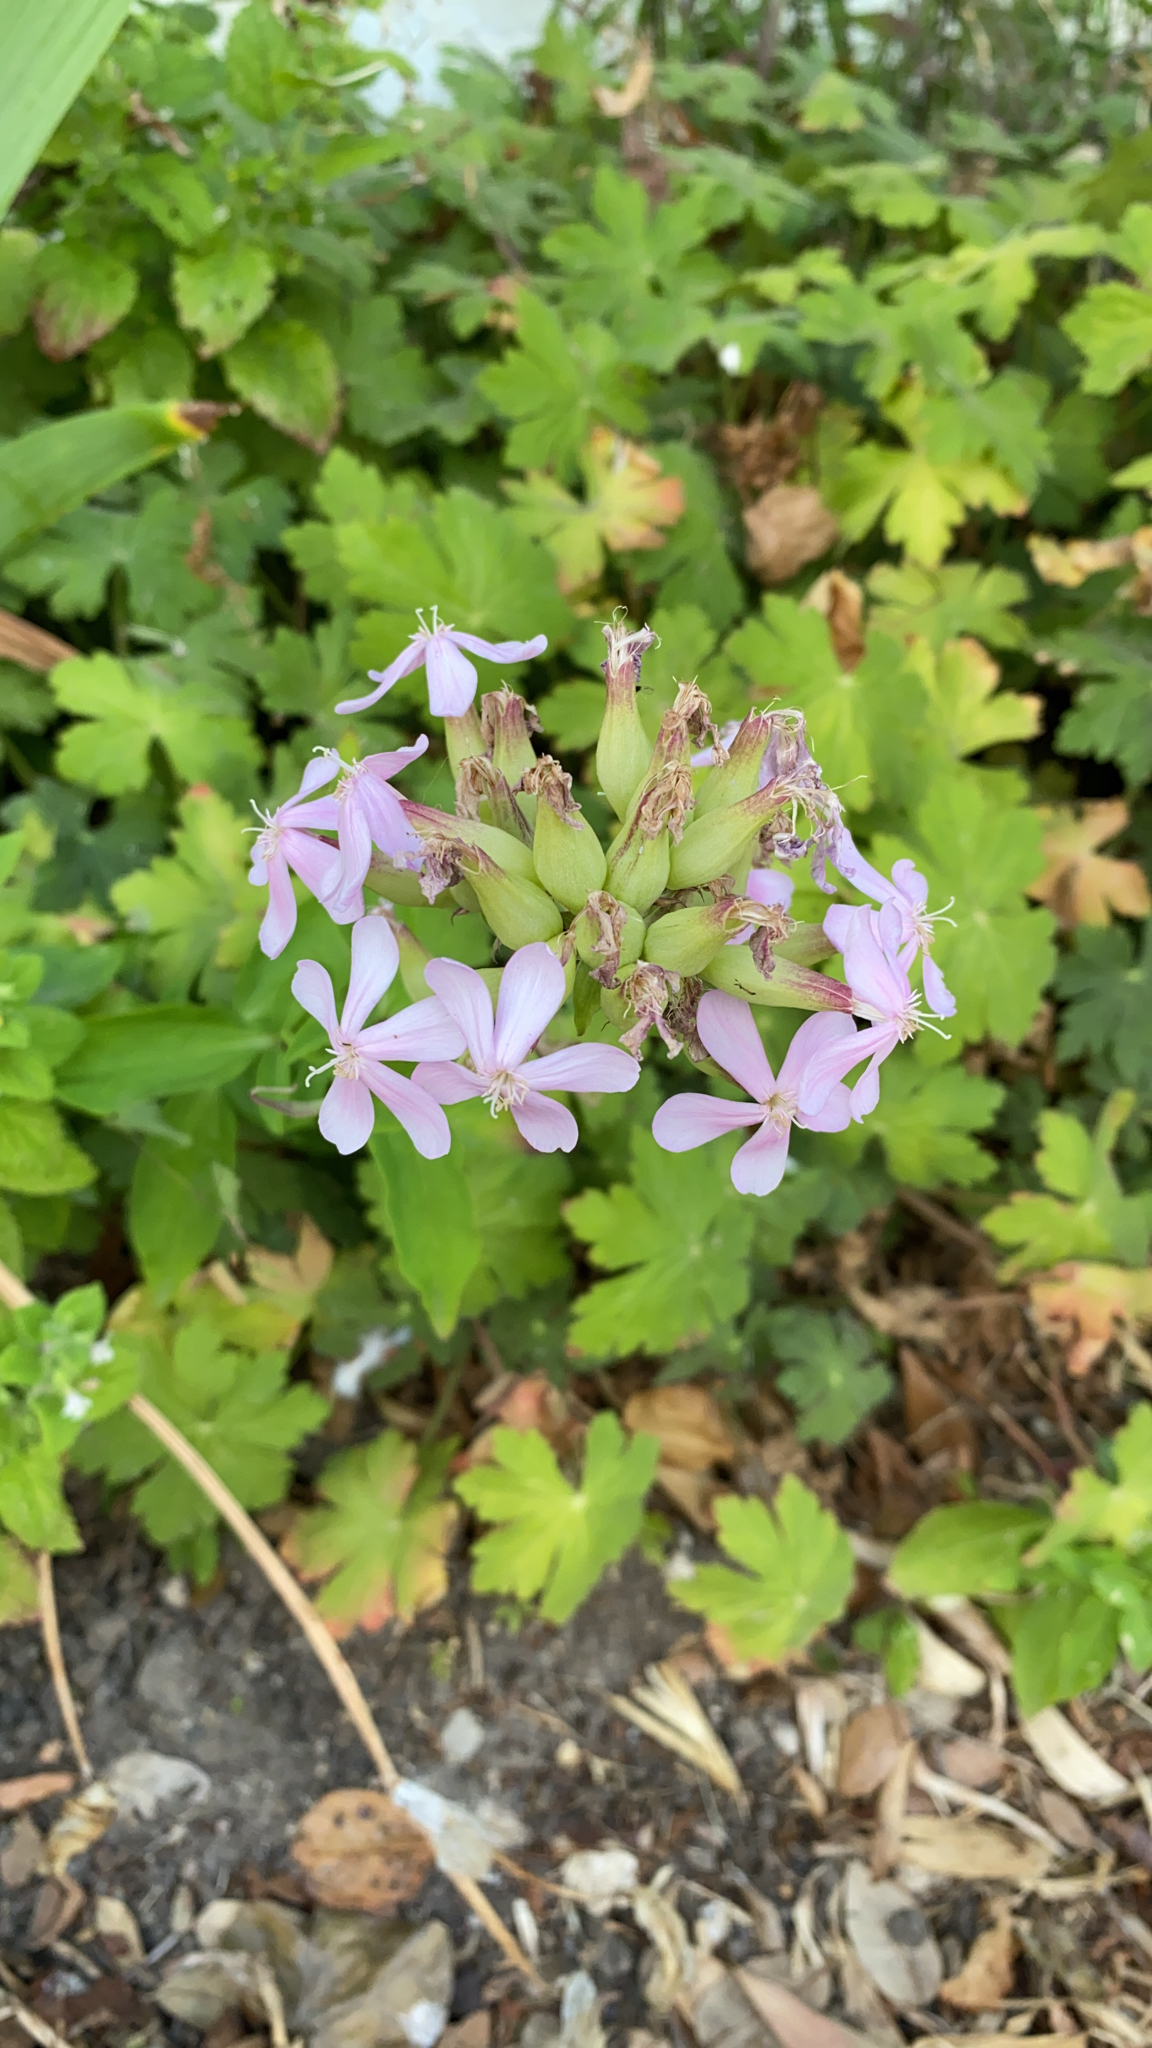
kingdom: Plantae
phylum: Tracheophyta
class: Magnoliopsida
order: Caryophyllales
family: Caryophyllaceae
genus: Saponaria
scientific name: Saponaria officinalis
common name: Soapwort
